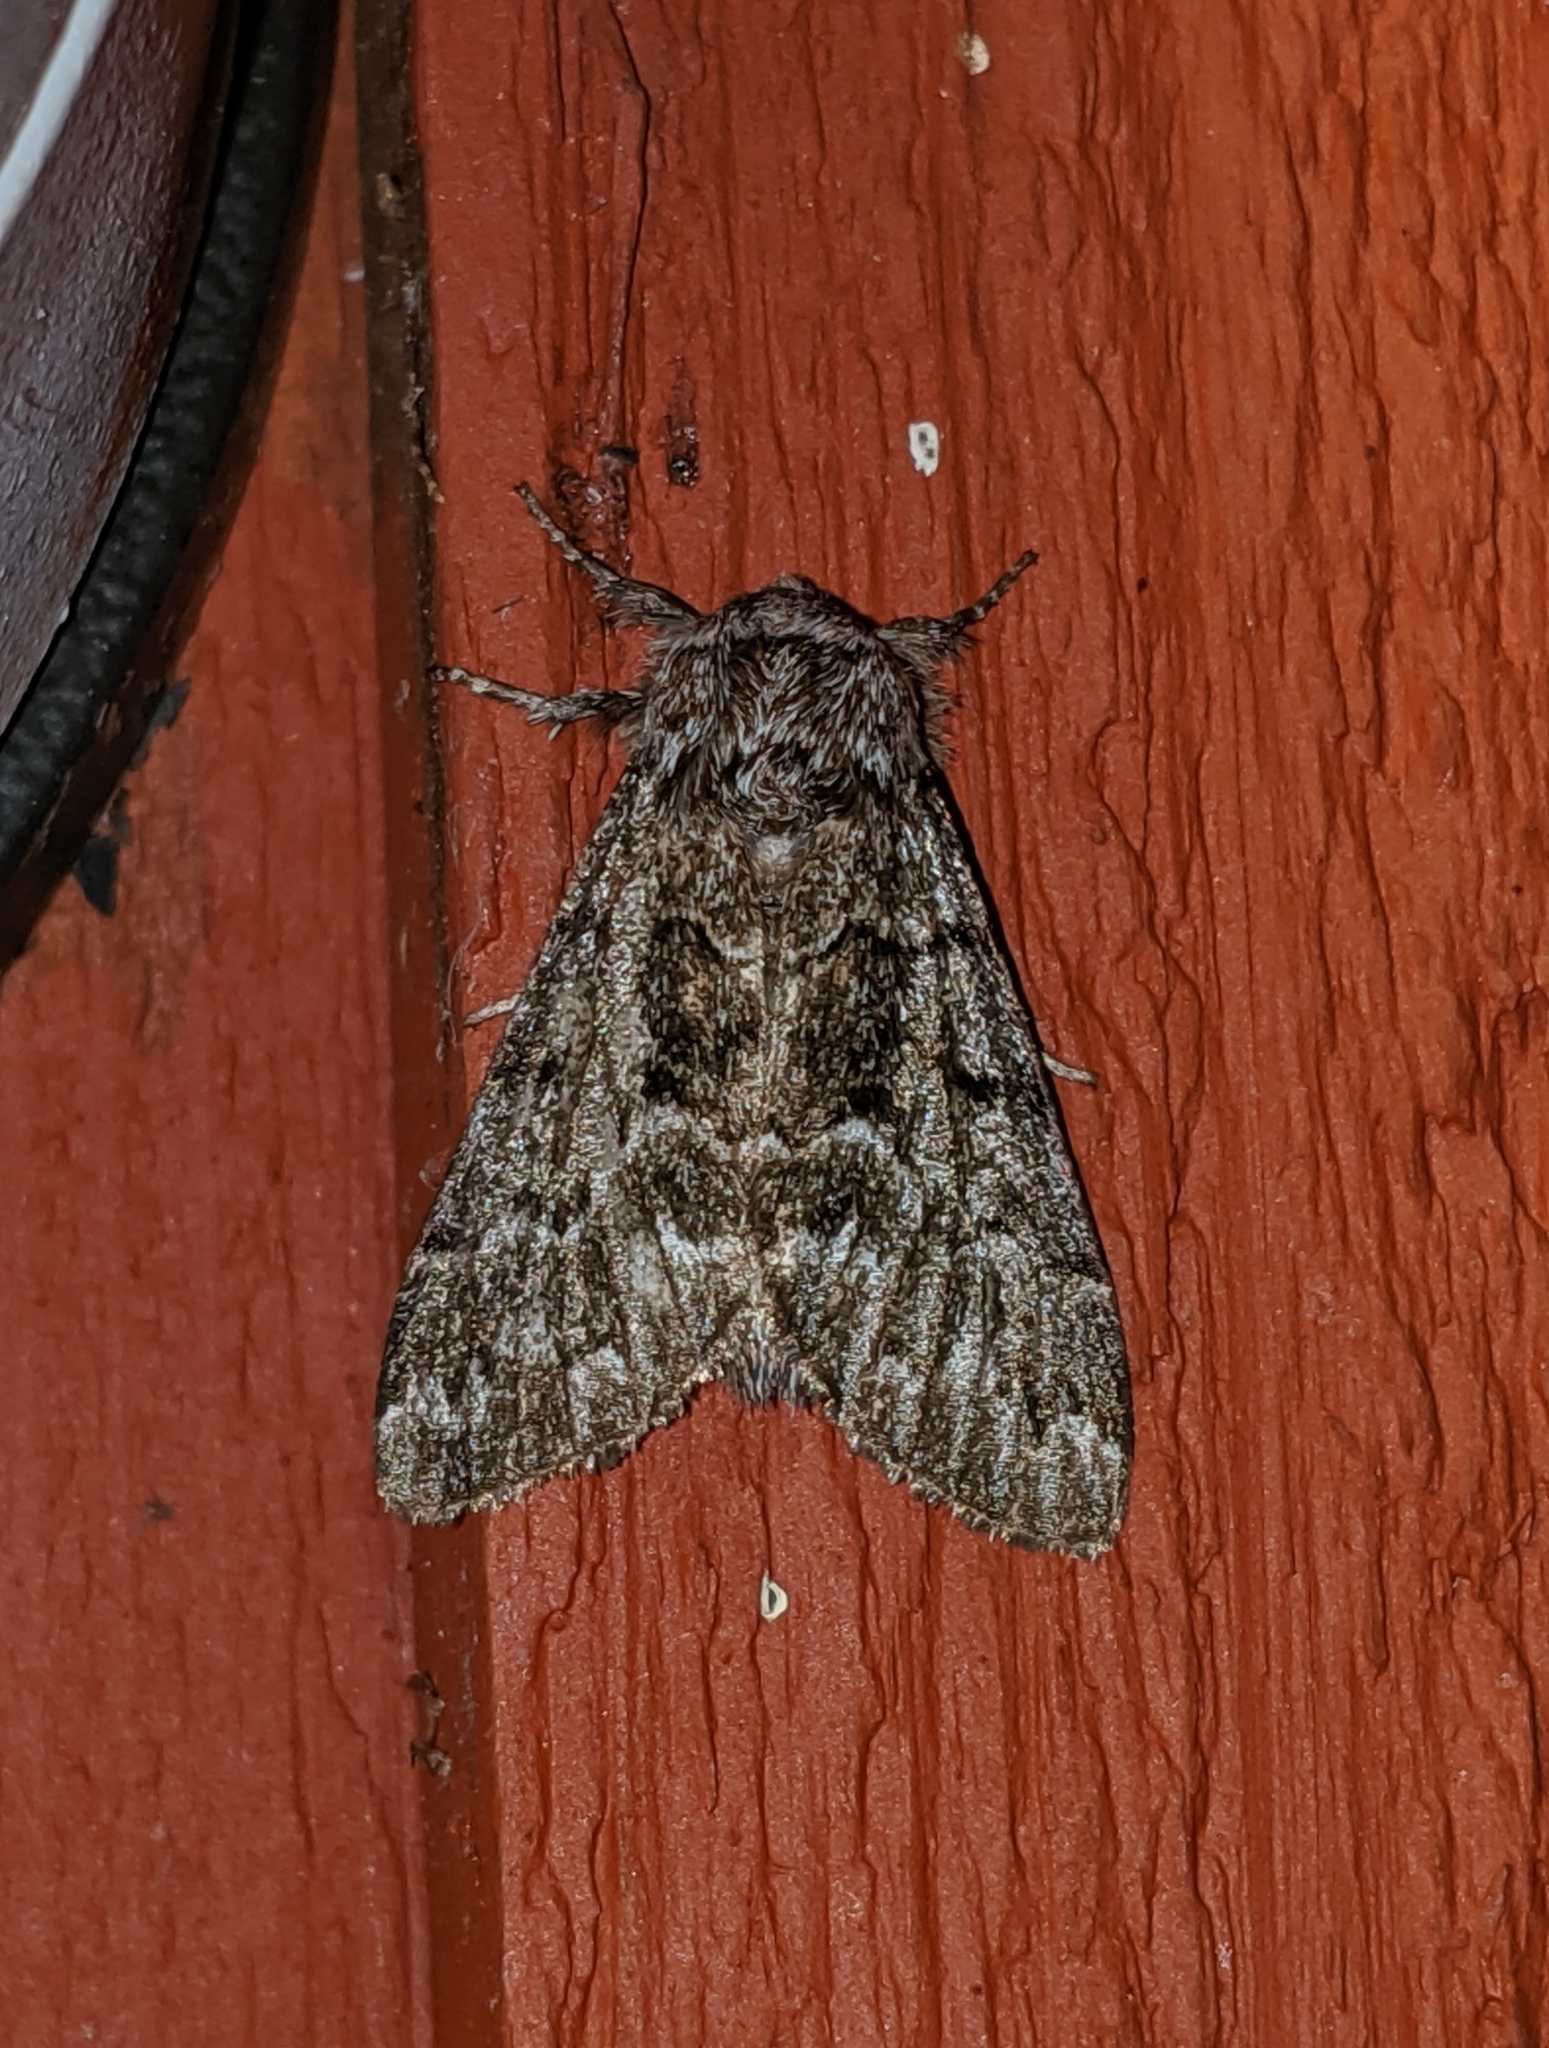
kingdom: Animalia
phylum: Arthropoda
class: Insecta
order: Lepidoptera
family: Noctuidae
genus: Panthea
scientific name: Panthea virginarius
